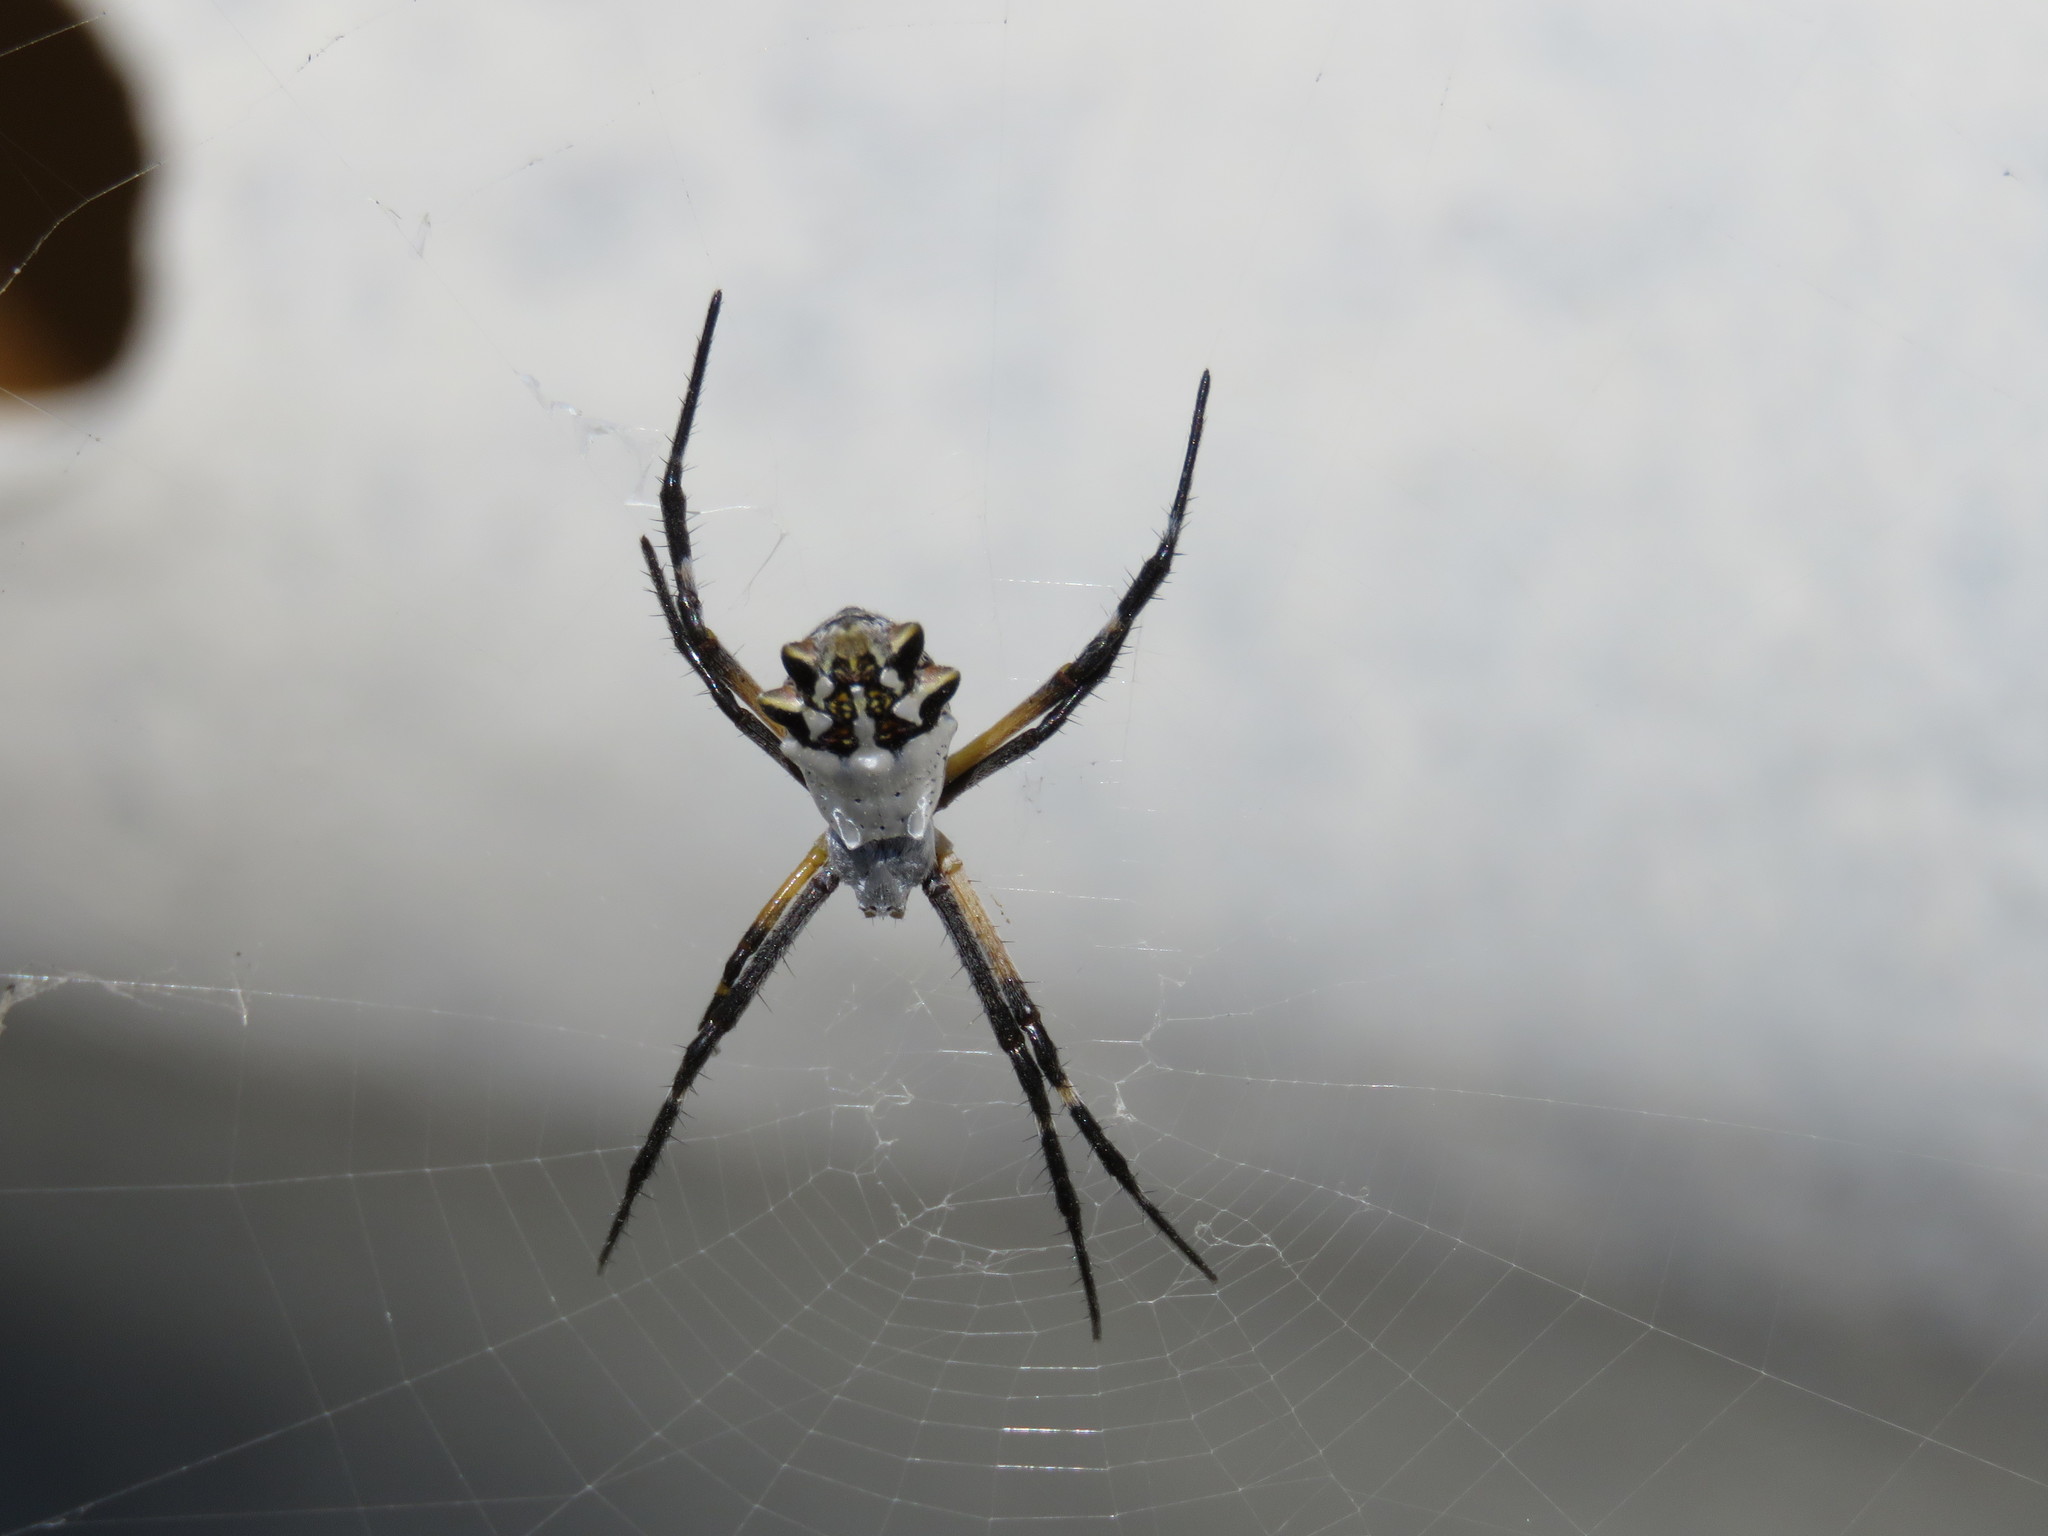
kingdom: Animalia
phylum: Arthropoda
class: Arachnida
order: Araneae
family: Araneidae
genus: Argiope
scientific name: Argiope argentata
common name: Orb weavers
